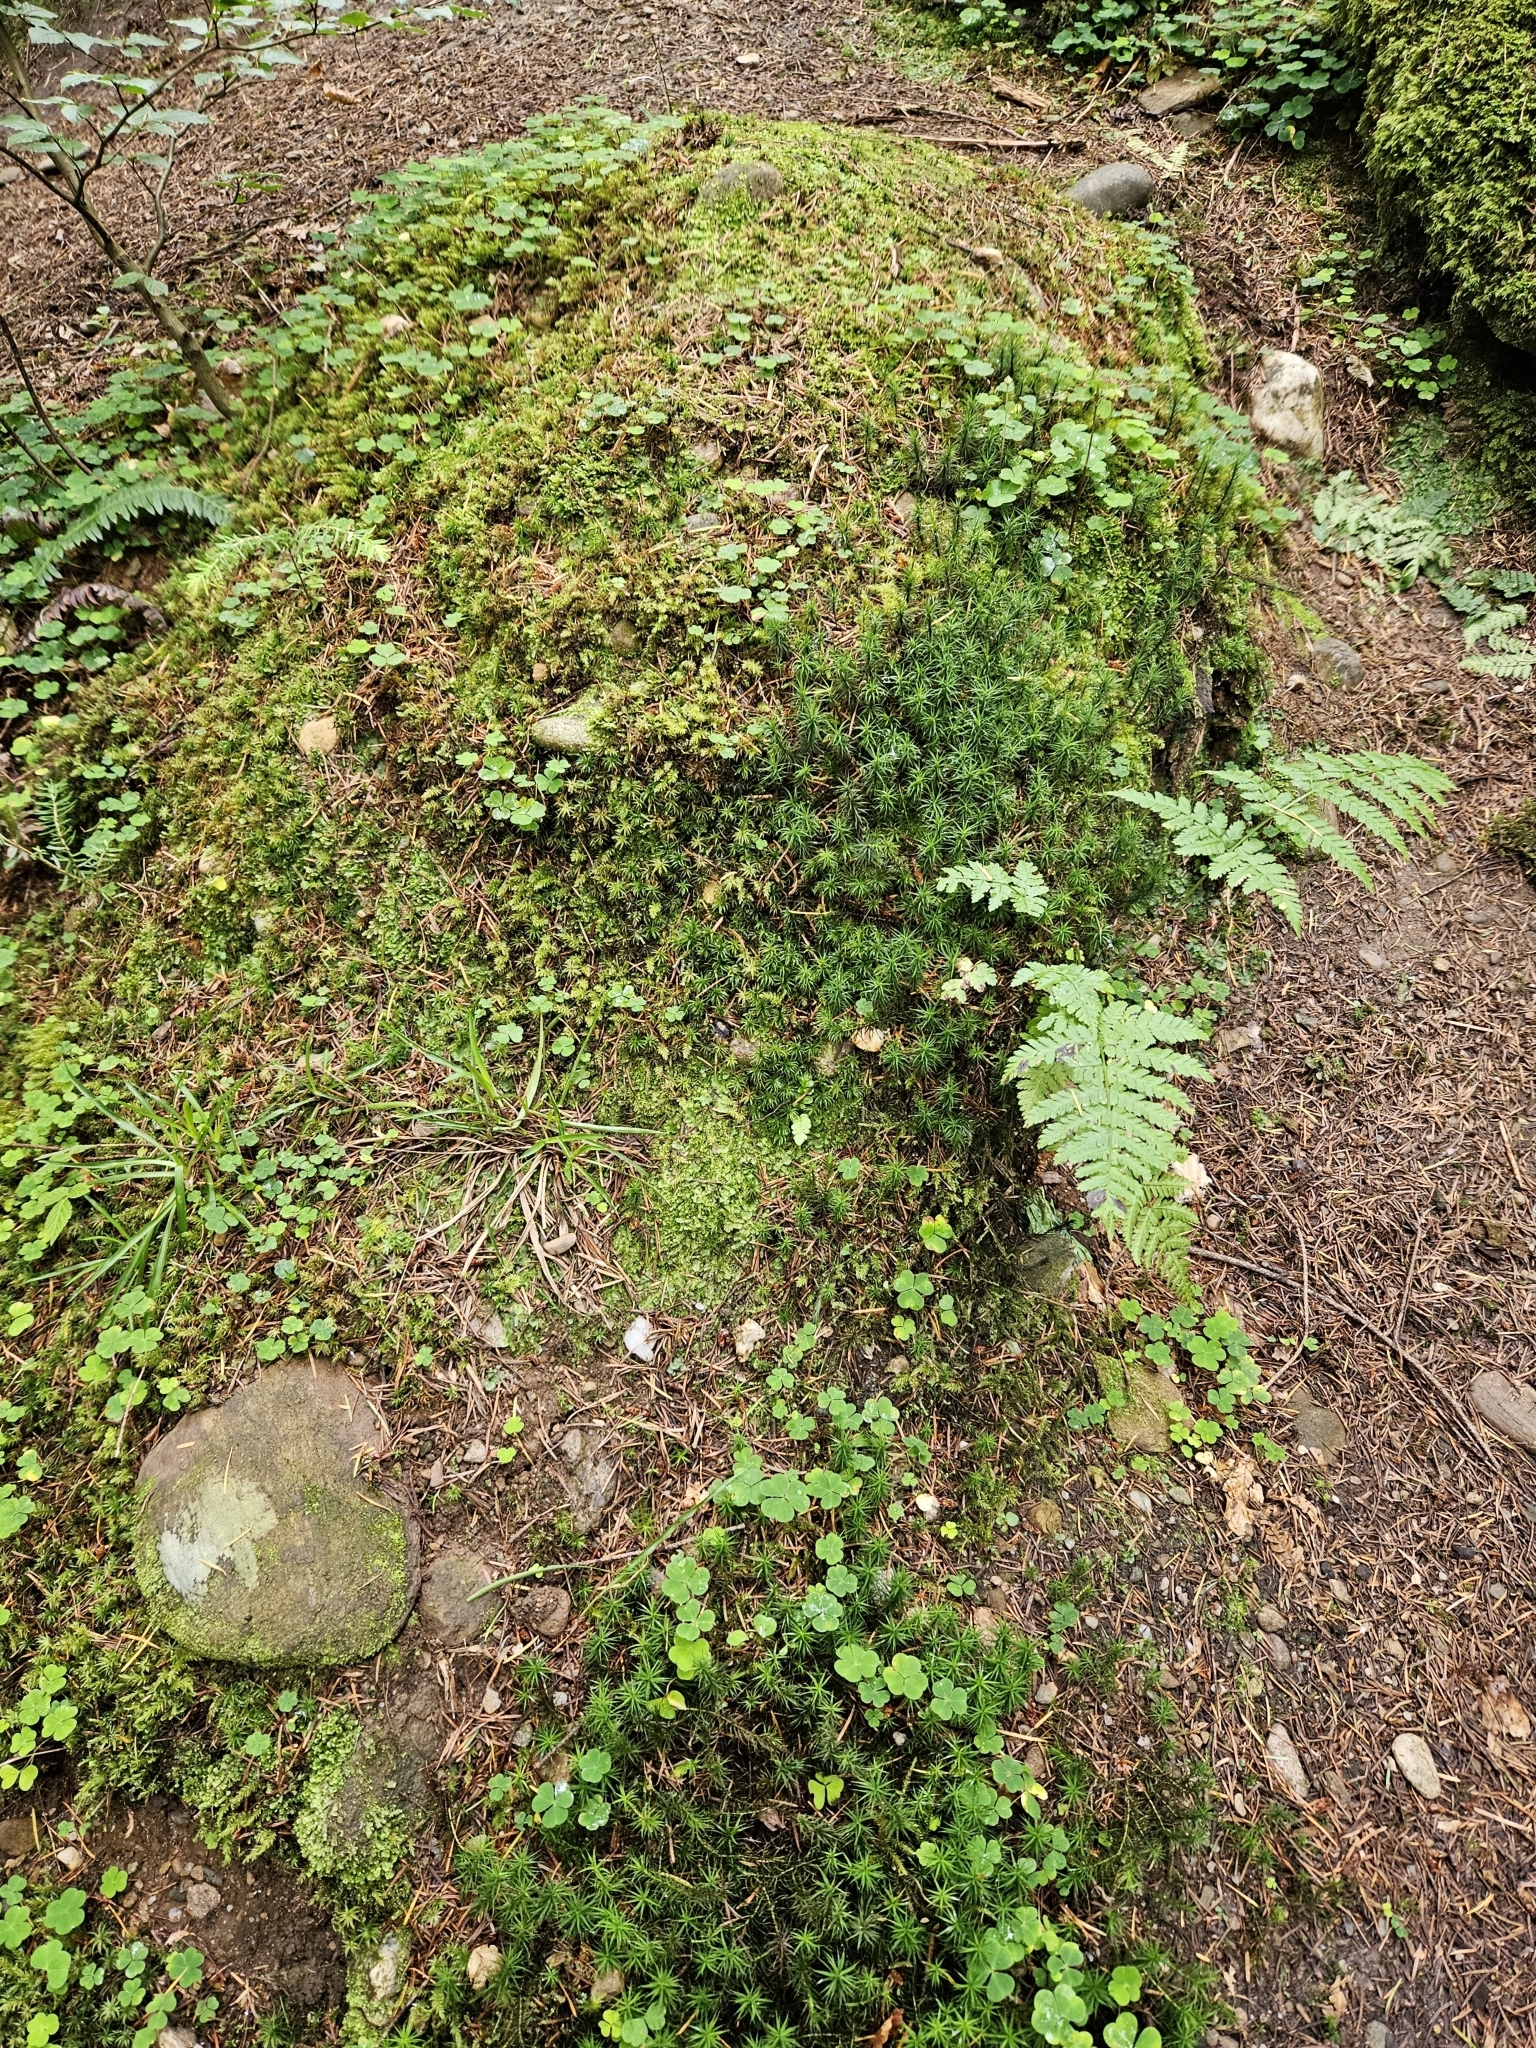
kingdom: Plantae
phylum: Bryophyta
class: Polytrichopsida
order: Polytrichales
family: Polytrichaceae
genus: Atrichum
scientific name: Atrichum undulatum
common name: Common smoothcap
